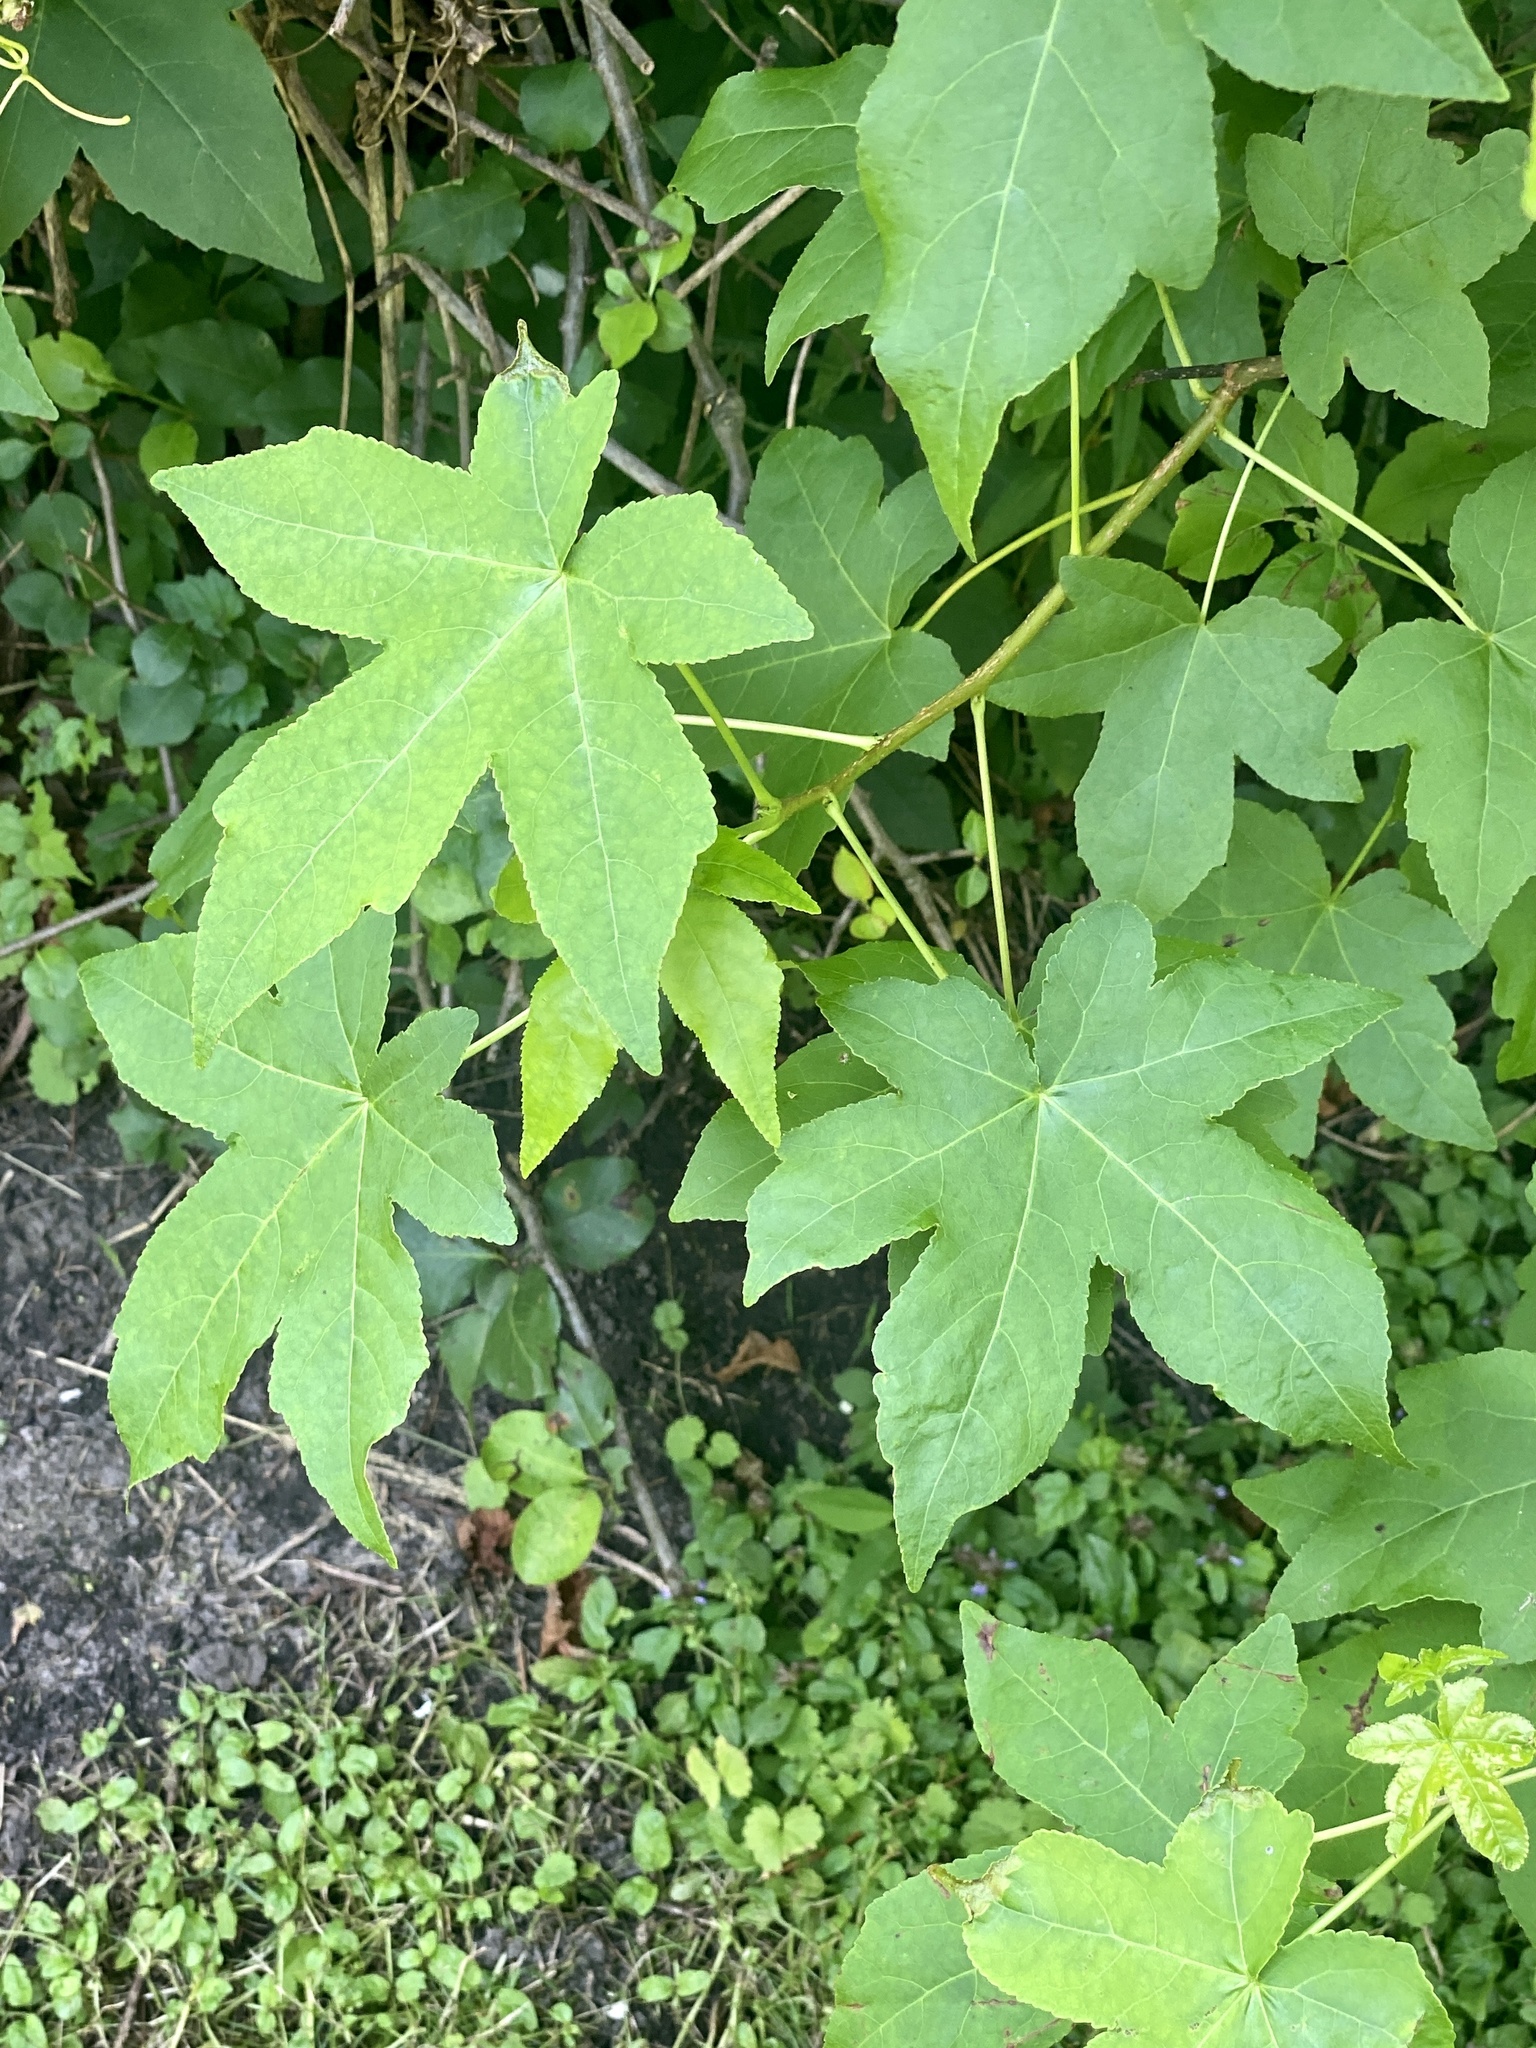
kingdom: Plantae
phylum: Tracheophyta
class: Magnoliopsida
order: Saxifragales
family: Altingiaceae
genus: Liquidambar
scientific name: Liquidambar styraciflua
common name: Sweet gum
